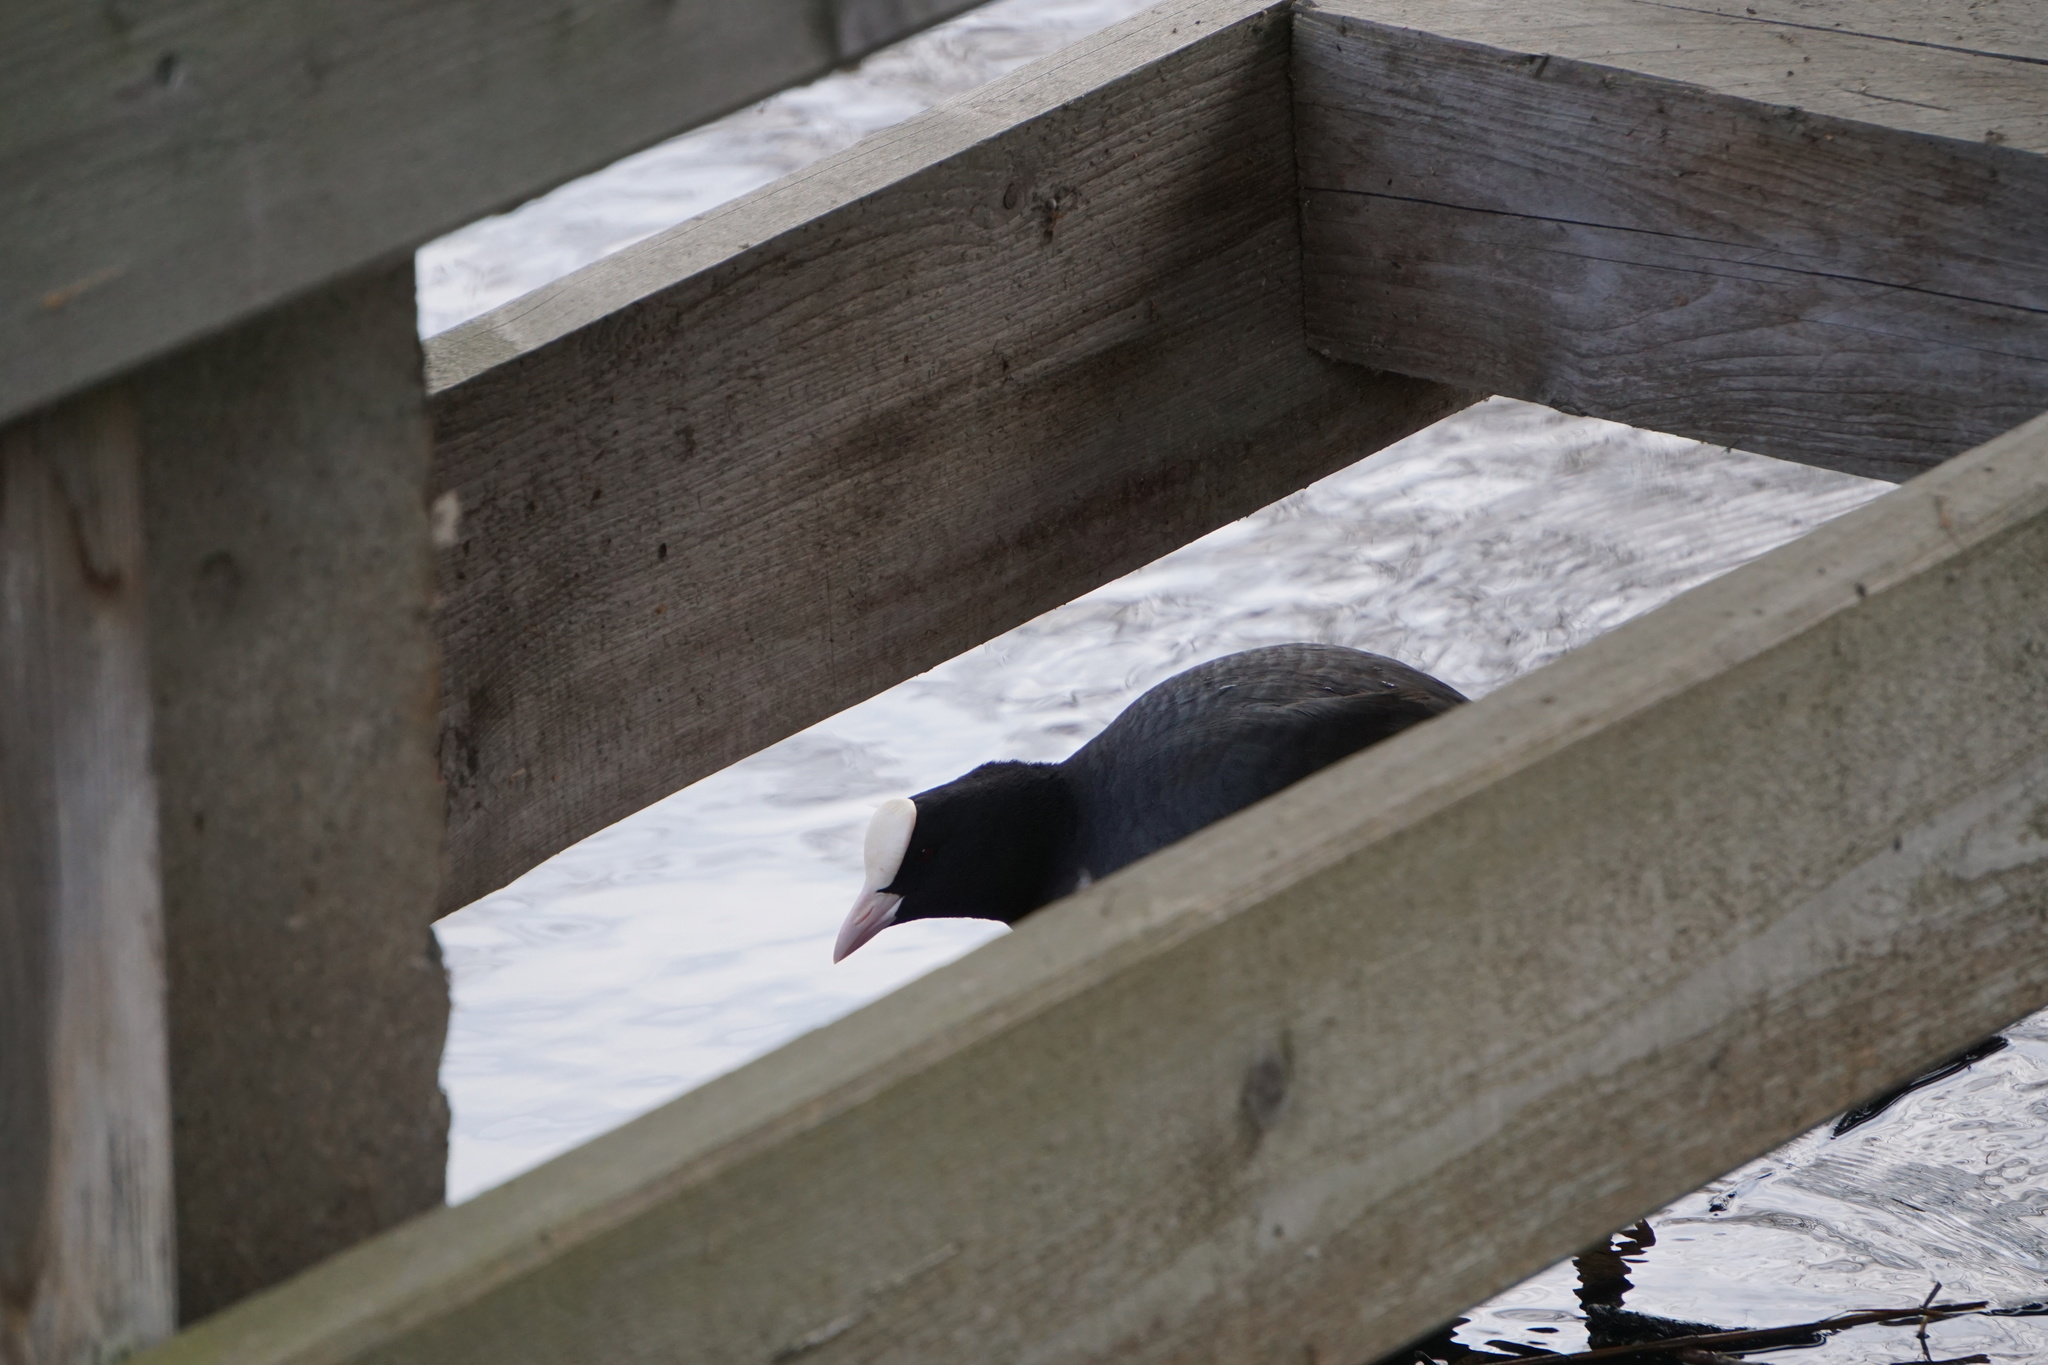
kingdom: Animalia
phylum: Chordata
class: Aves
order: Gruiformes
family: Rallidae
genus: Fulica
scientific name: Fulica atra
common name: Eurasian coot
